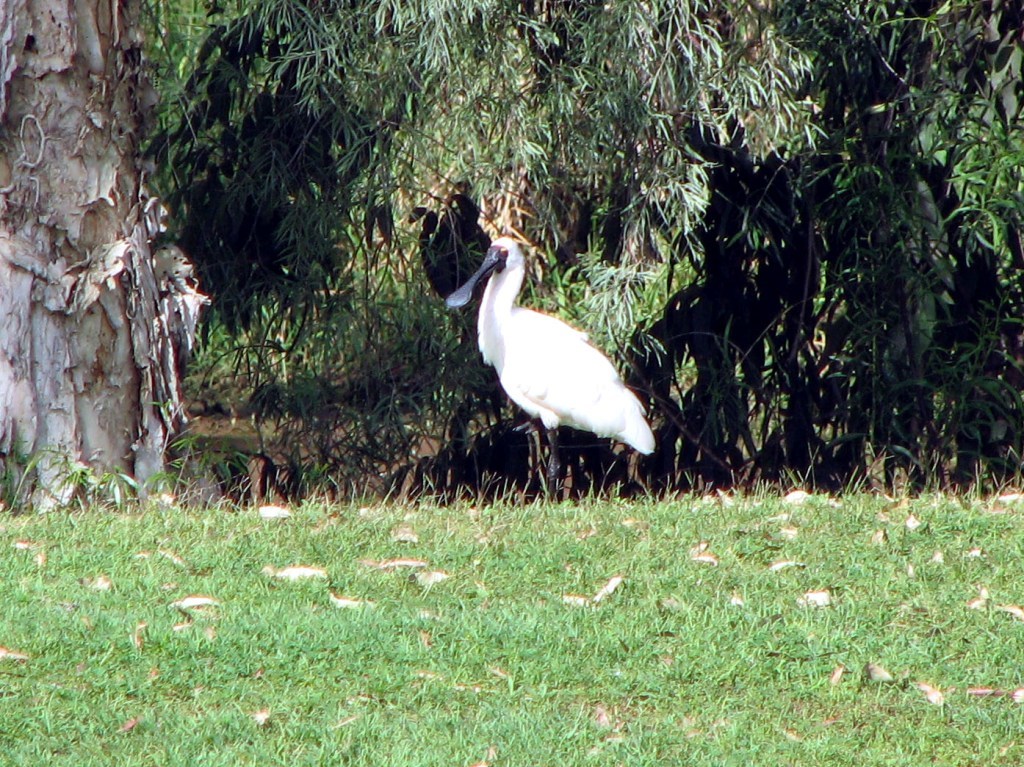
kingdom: Animalia
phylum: Chordata
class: Aves
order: Pelecaniformes
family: Threskiornithidae
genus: Platalea
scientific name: Platalea regia
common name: Royal spoonbill
